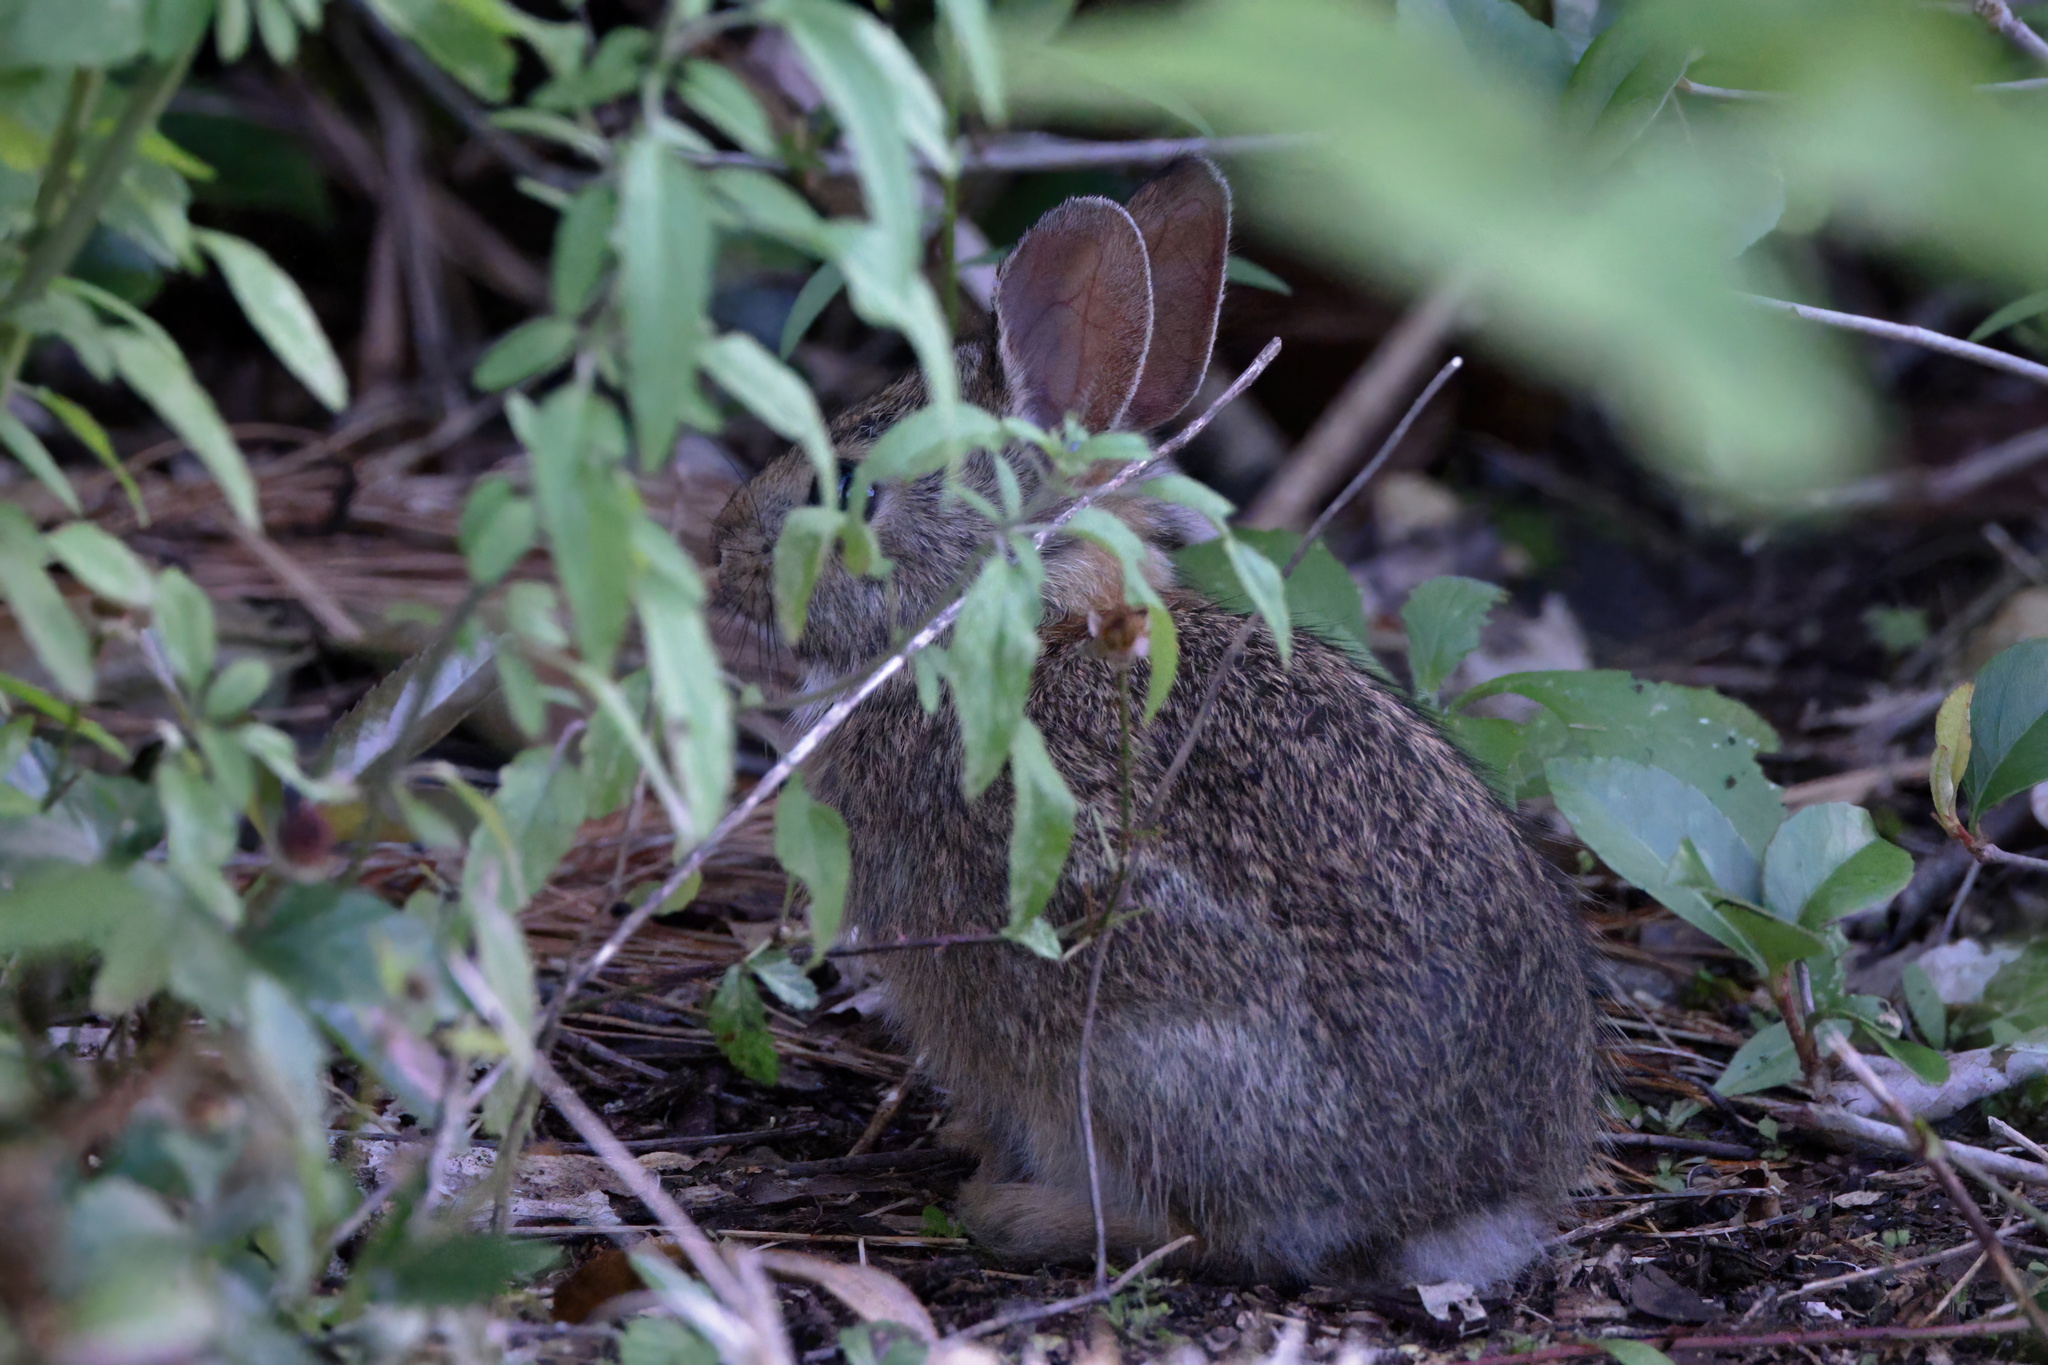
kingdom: Animalia
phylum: Chordata
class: Mammalia
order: Lagomorpha
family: Leporidae
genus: Sylvilagus
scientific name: Sylvilagus floridanus
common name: Eastern cottontail
